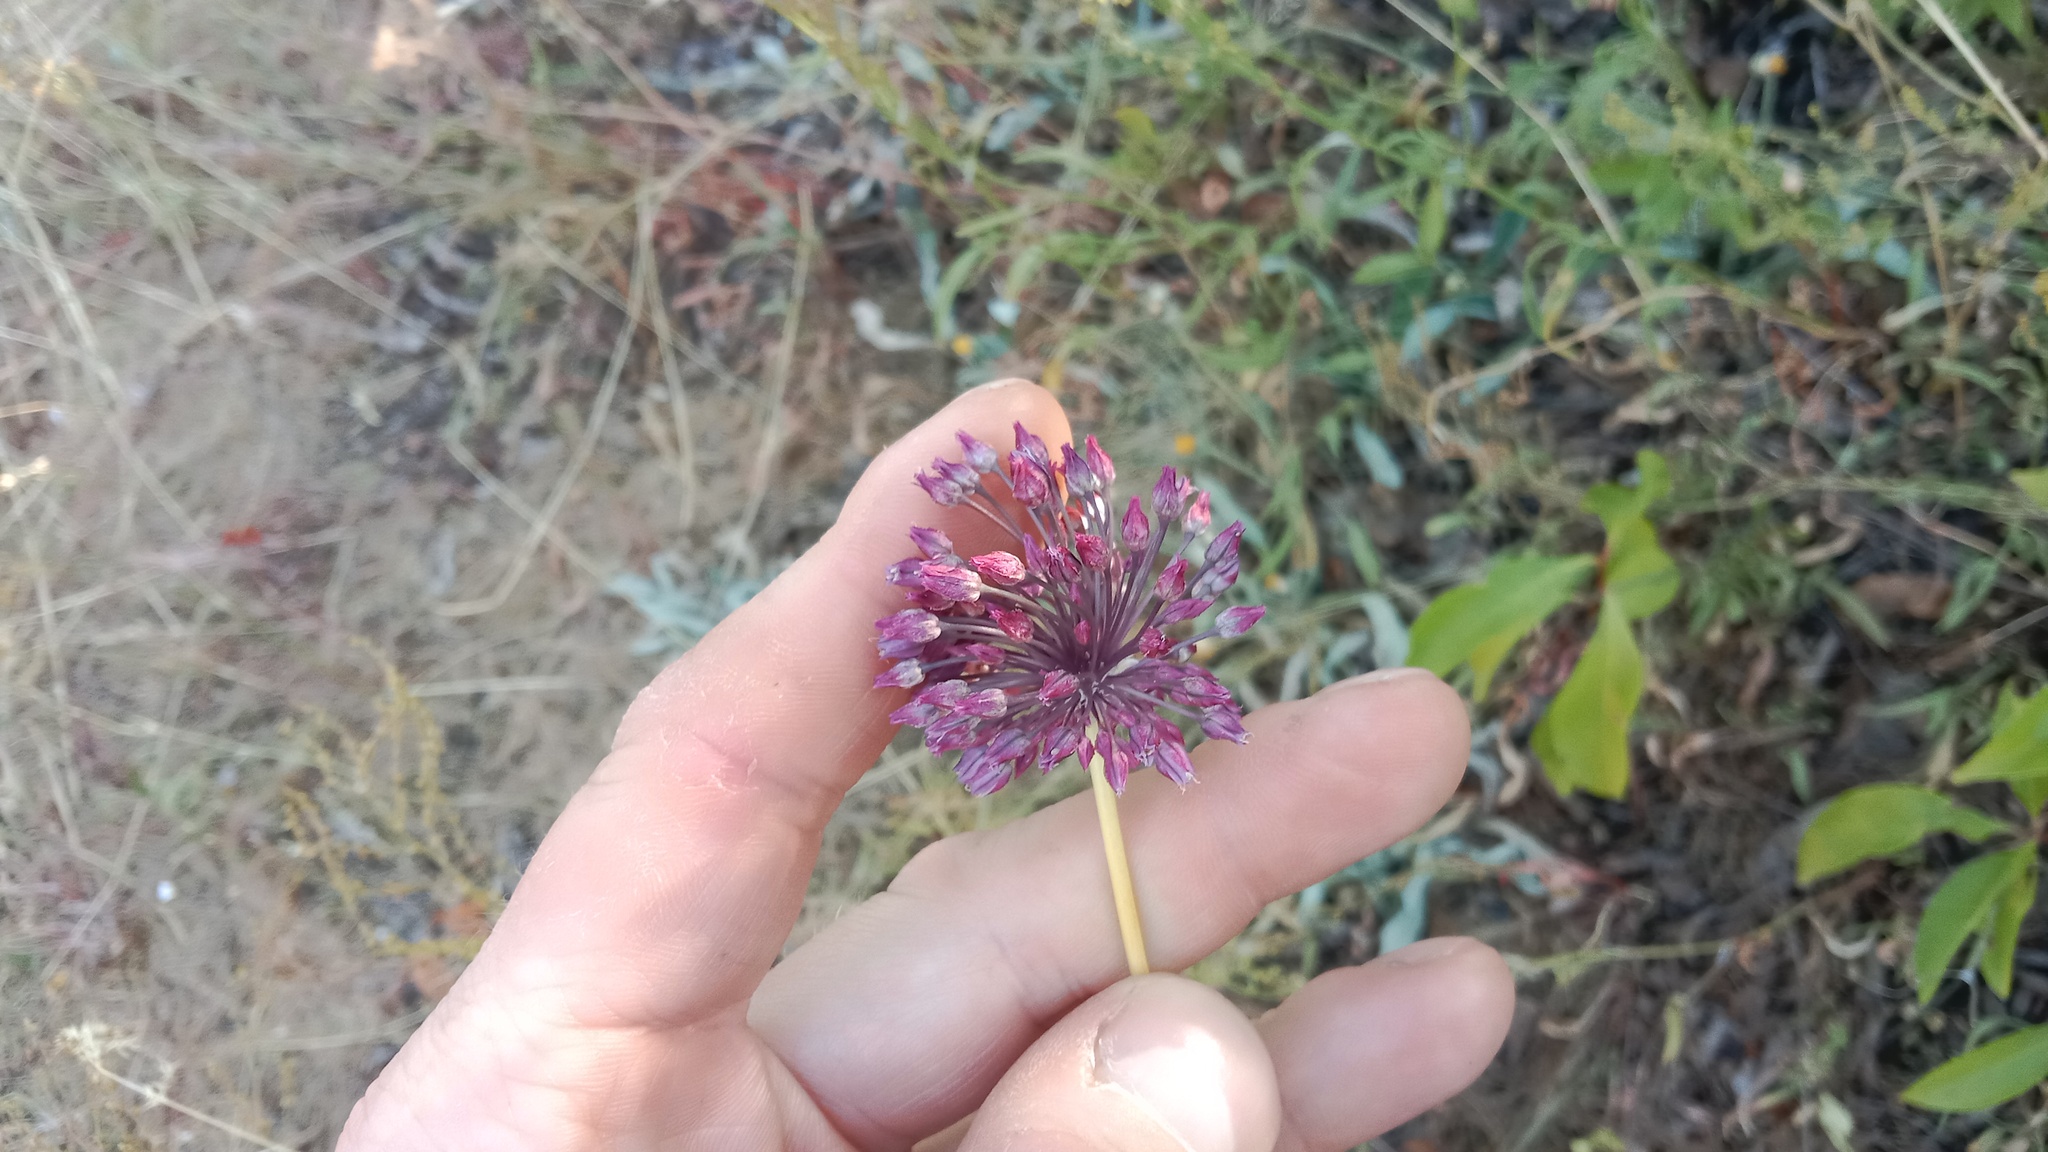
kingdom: Plantae
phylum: Tracheophyta
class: Liliopsida
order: Asparagales
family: Amaryllidaceae
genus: Allium
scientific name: Allium rotundum
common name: Sand leek
